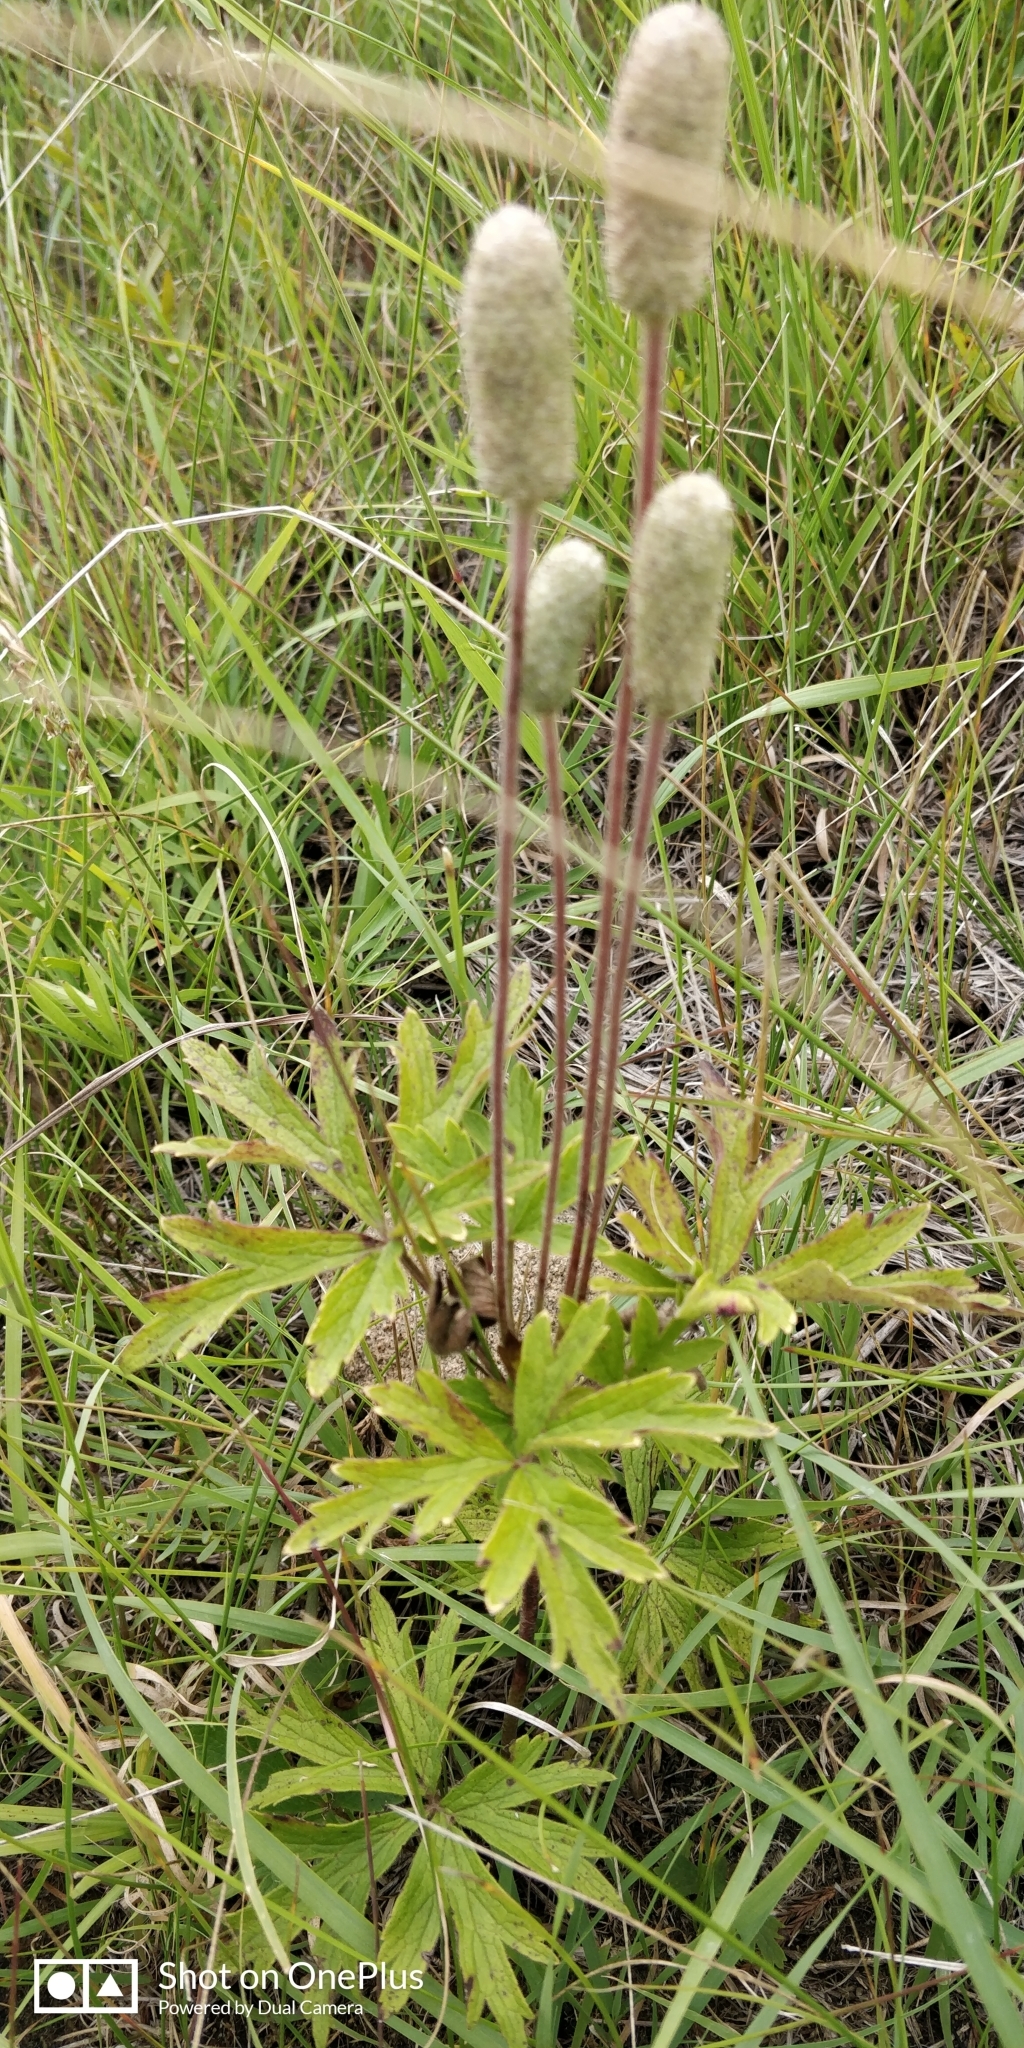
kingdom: Plantae
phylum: Tracheophyta
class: Magnoliopsida
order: Ranunculales
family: Ranunculaceae
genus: Anemone
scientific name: Anemone cylindrica
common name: Candle anemone
